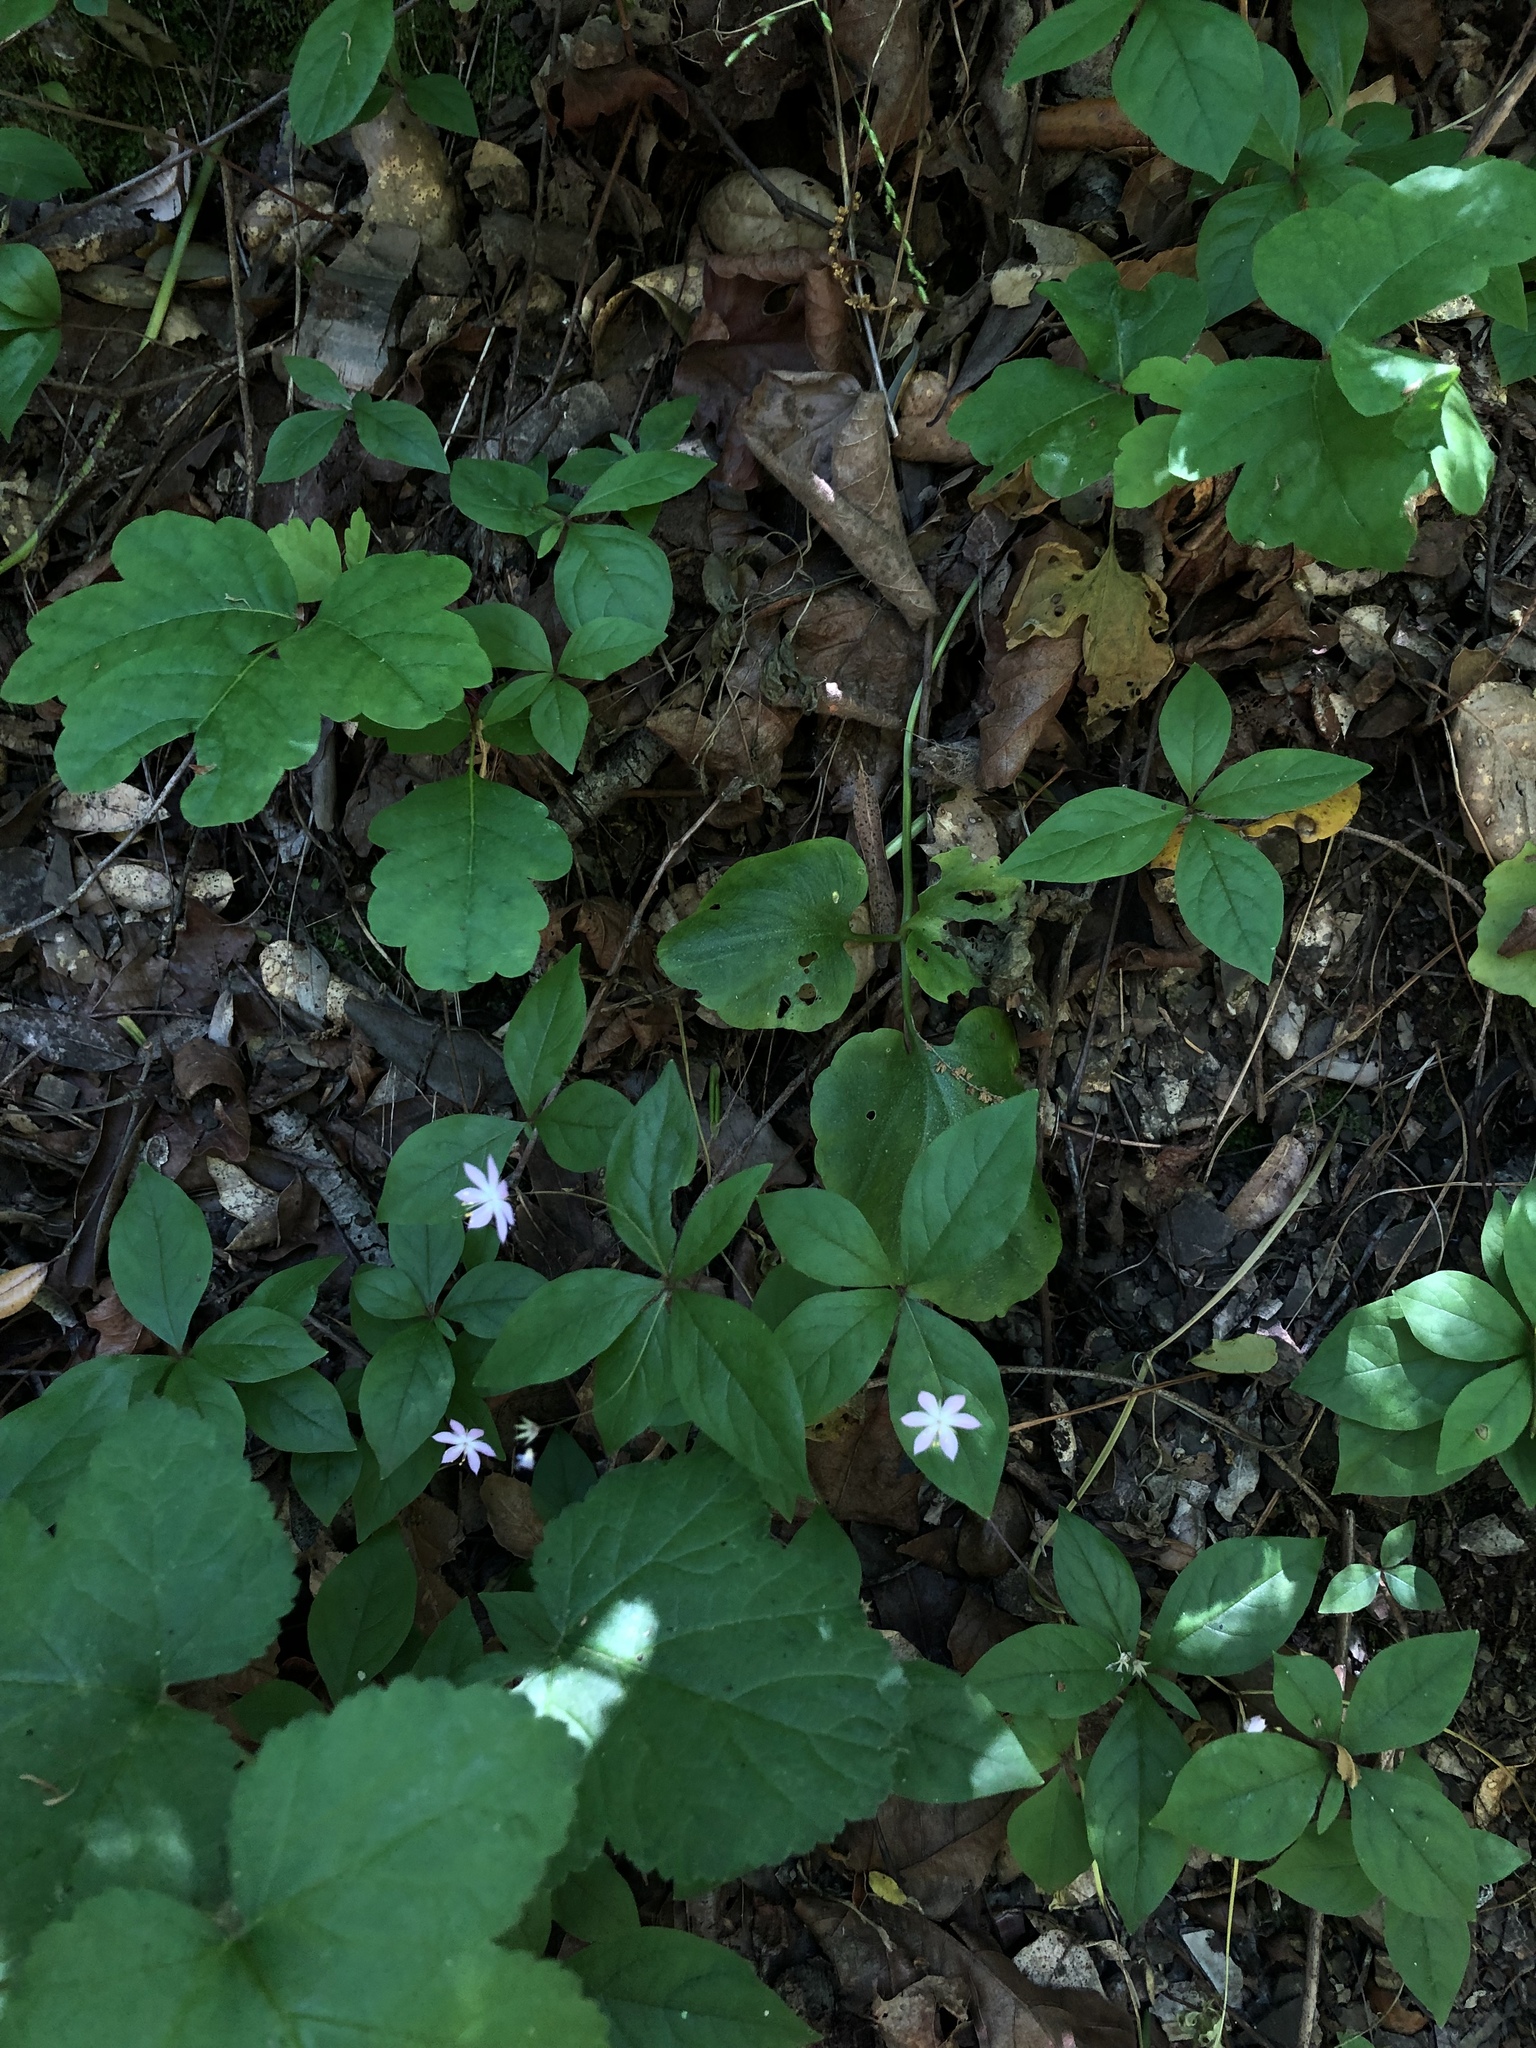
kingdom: Plantae
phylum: Tracheophyta
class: Magnoliopsida
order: Ericales
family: Primulaceae
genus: Lysimachia
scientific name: Lysimachia latifolia
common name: Pacific starflower
